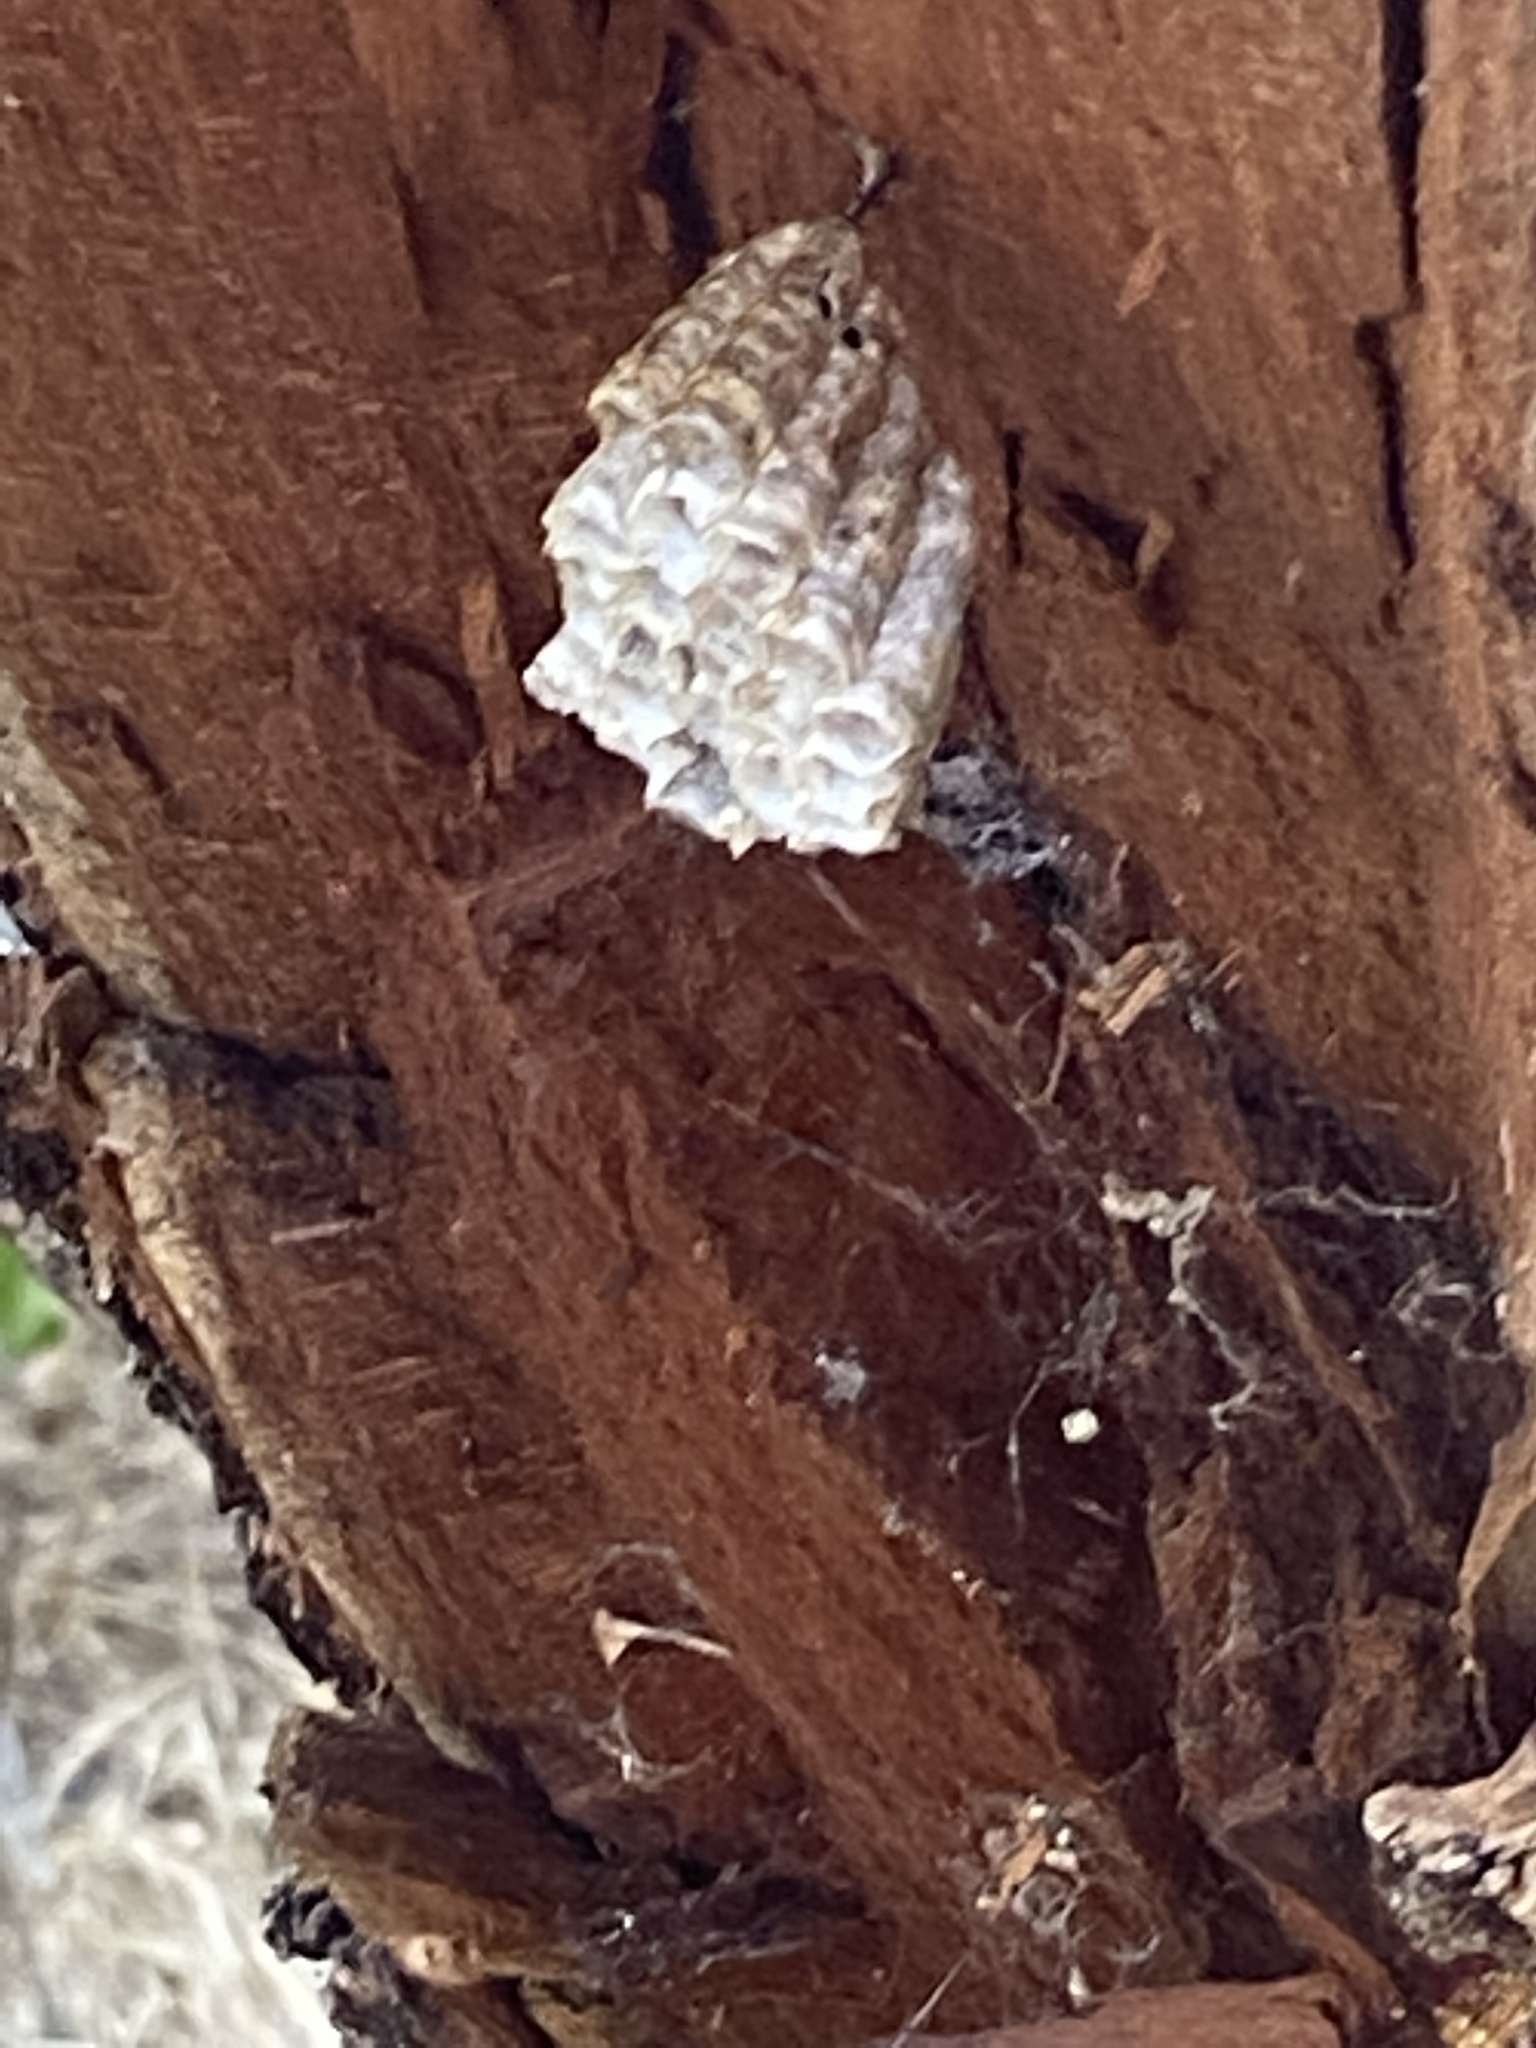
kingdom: Animalia
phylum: Arthropoda
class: Insecta
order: Hymenoptera
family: Eumenidae
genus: Polistes
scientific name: Polistes
